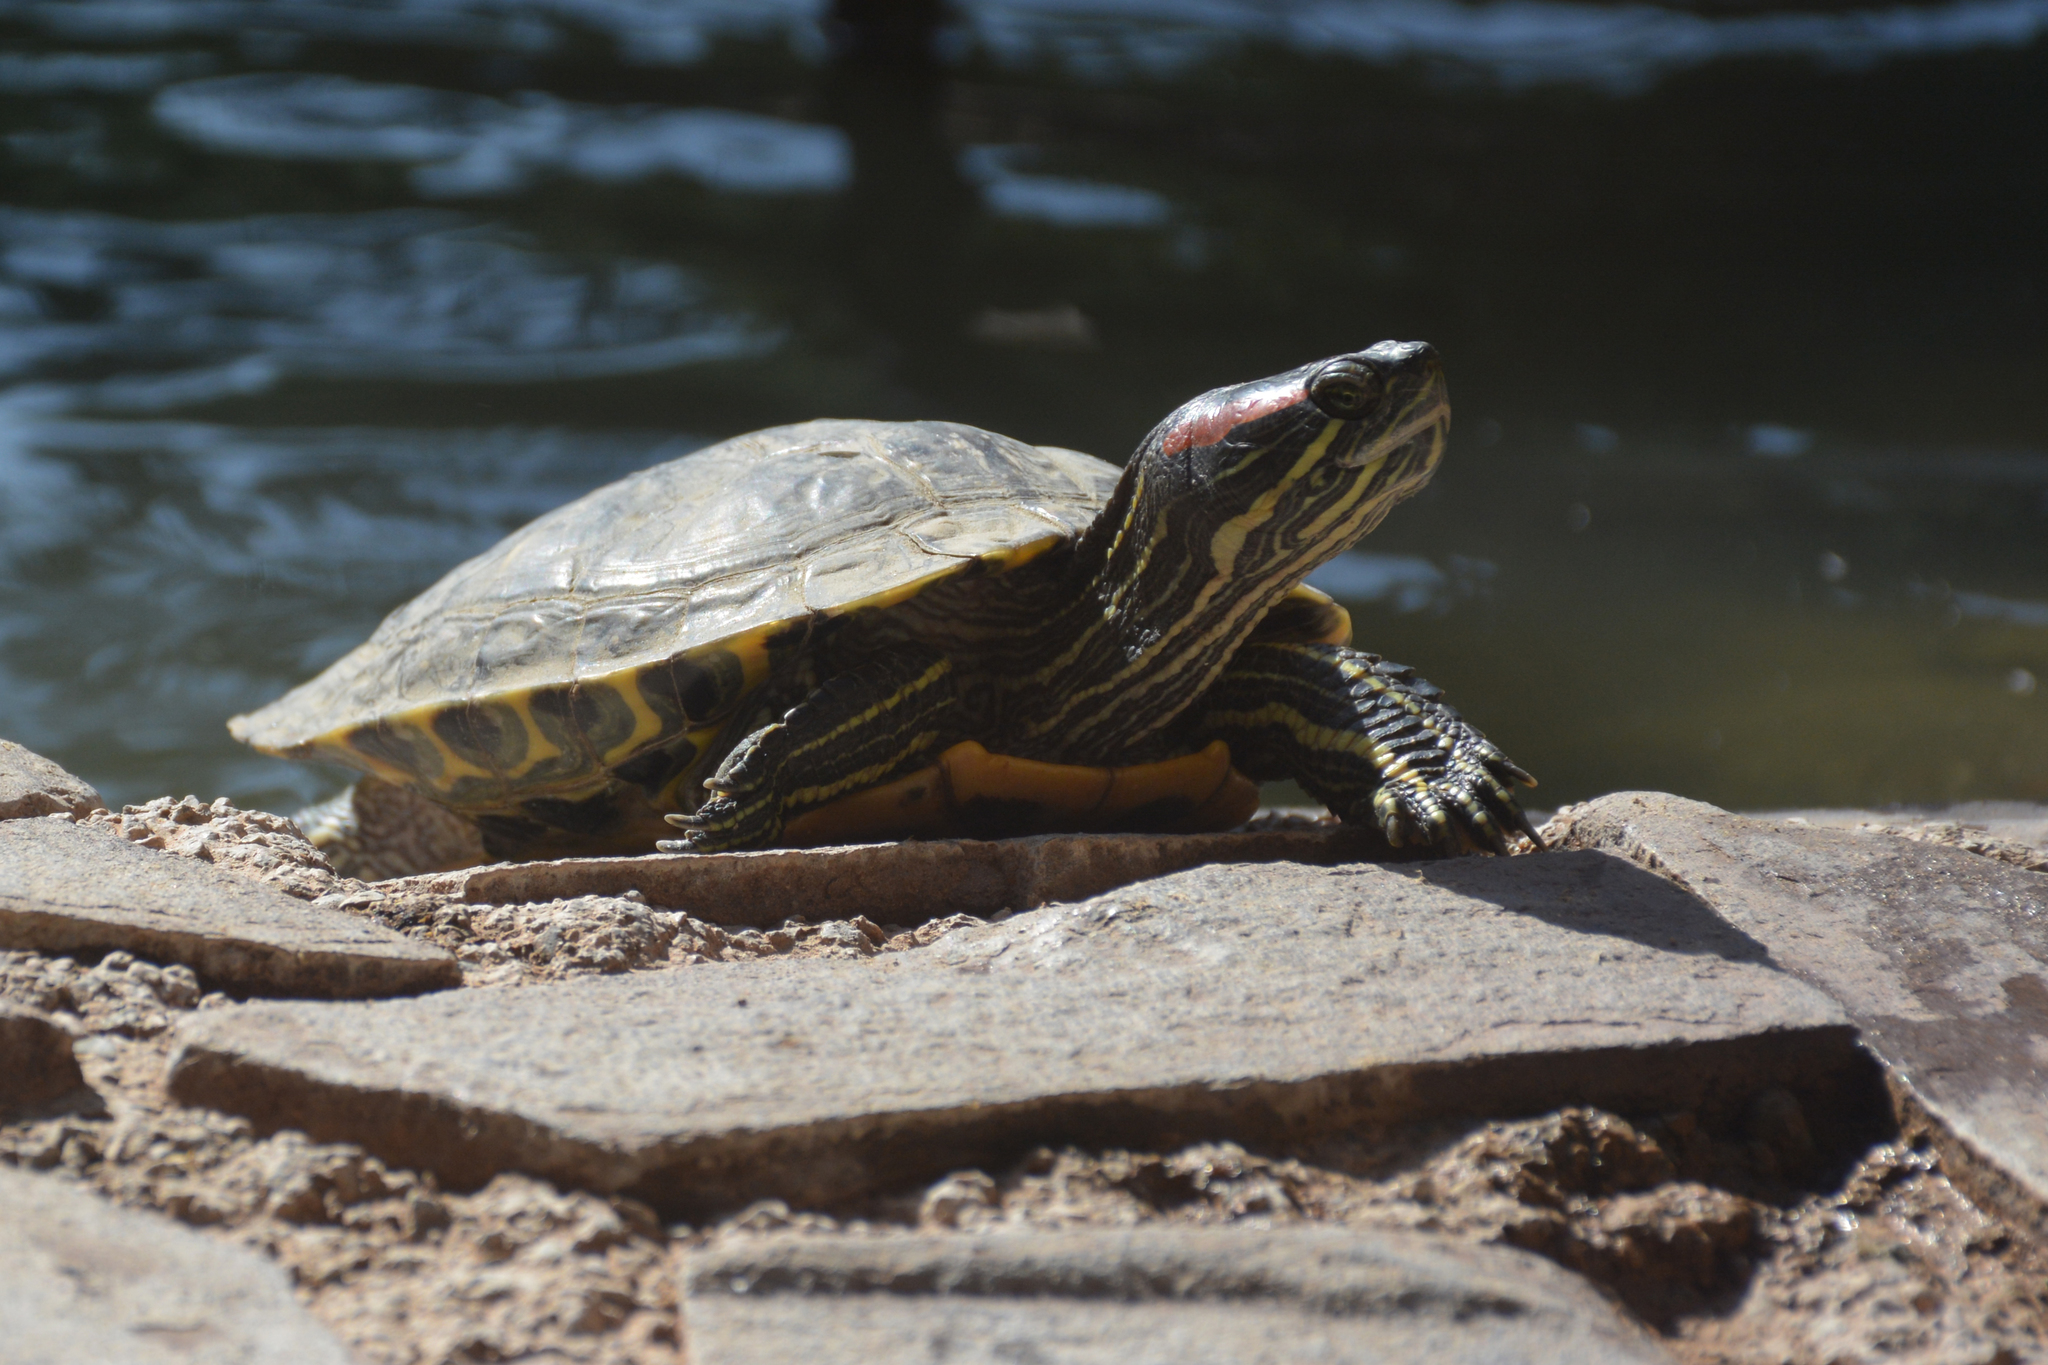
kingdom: Animalia
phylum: Chordata
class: Testudines
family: Emydidae
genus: Trachemys
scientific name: Trachemys scripta
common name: Slider
